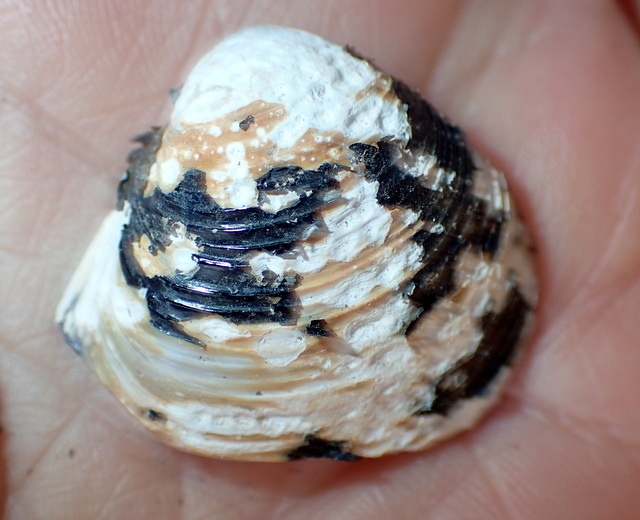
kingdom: Animalia
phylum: Mollusca
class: Bivalvia
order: Venerida
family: Cyrenidae
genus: Corbicula
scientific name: Corbicula fluminea
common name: Asian clam
